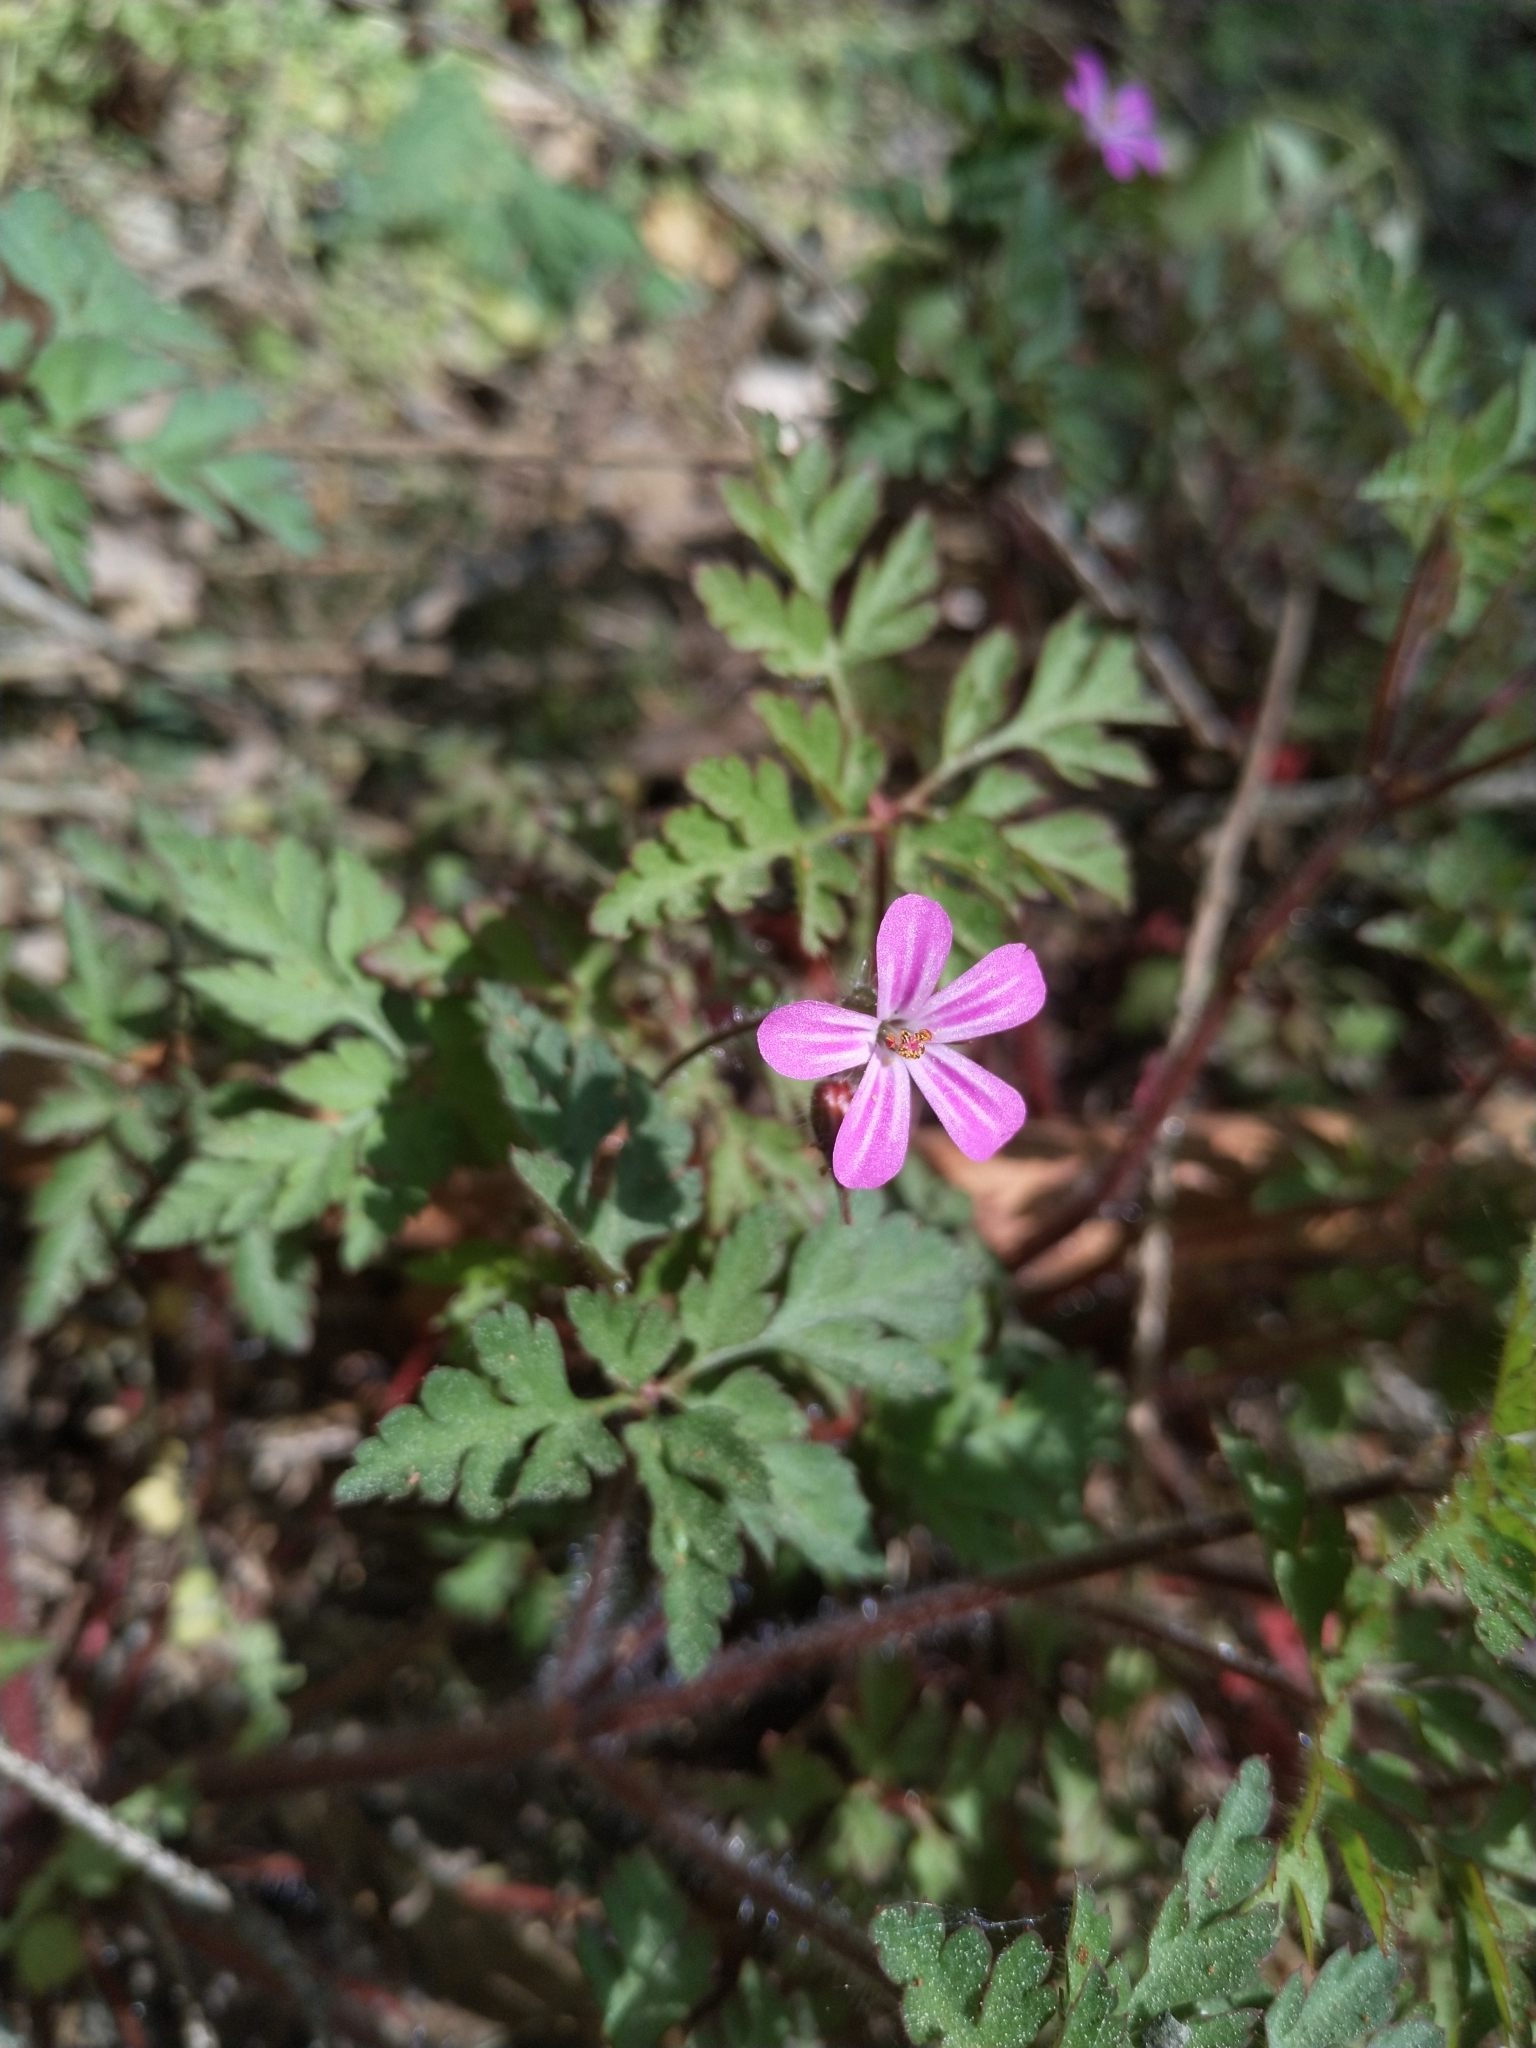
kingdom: Plantae
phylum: Tracheophyta
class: Magnoliopsida
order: Geraniales
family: Geraniaceae
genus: Geranium
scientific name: Geranium robertianum
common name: Herb-robert
